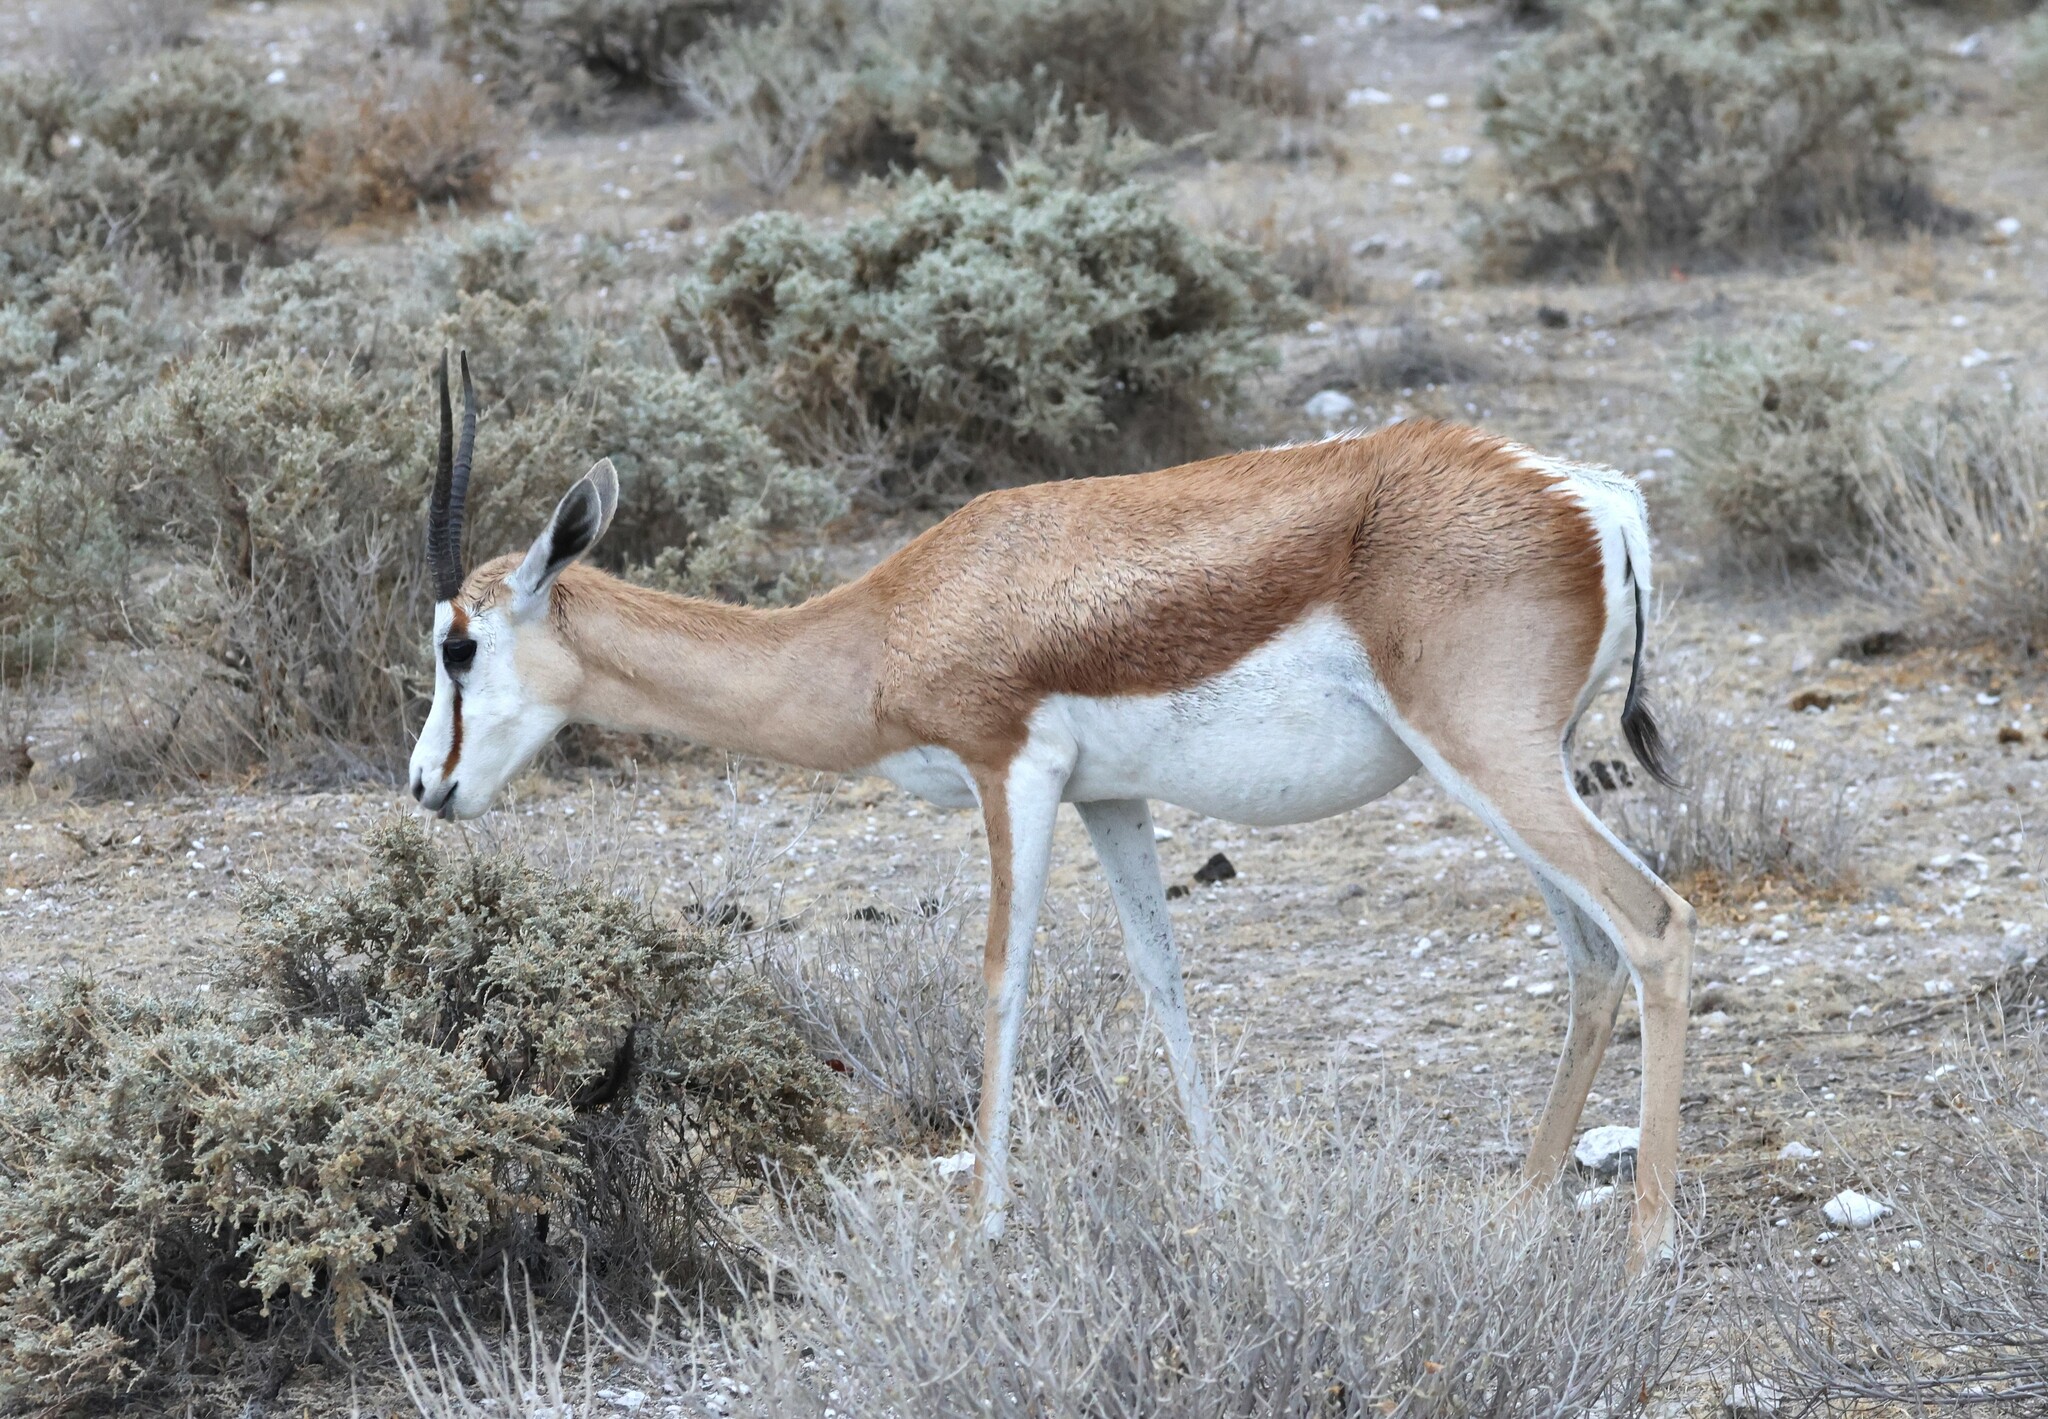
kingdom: Animalia
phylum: Chordata
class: Mammalia
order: Artiodactyla
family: Bovidae
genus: Antidorcas
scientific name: Antidorcas marsupialis
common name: Springbok
